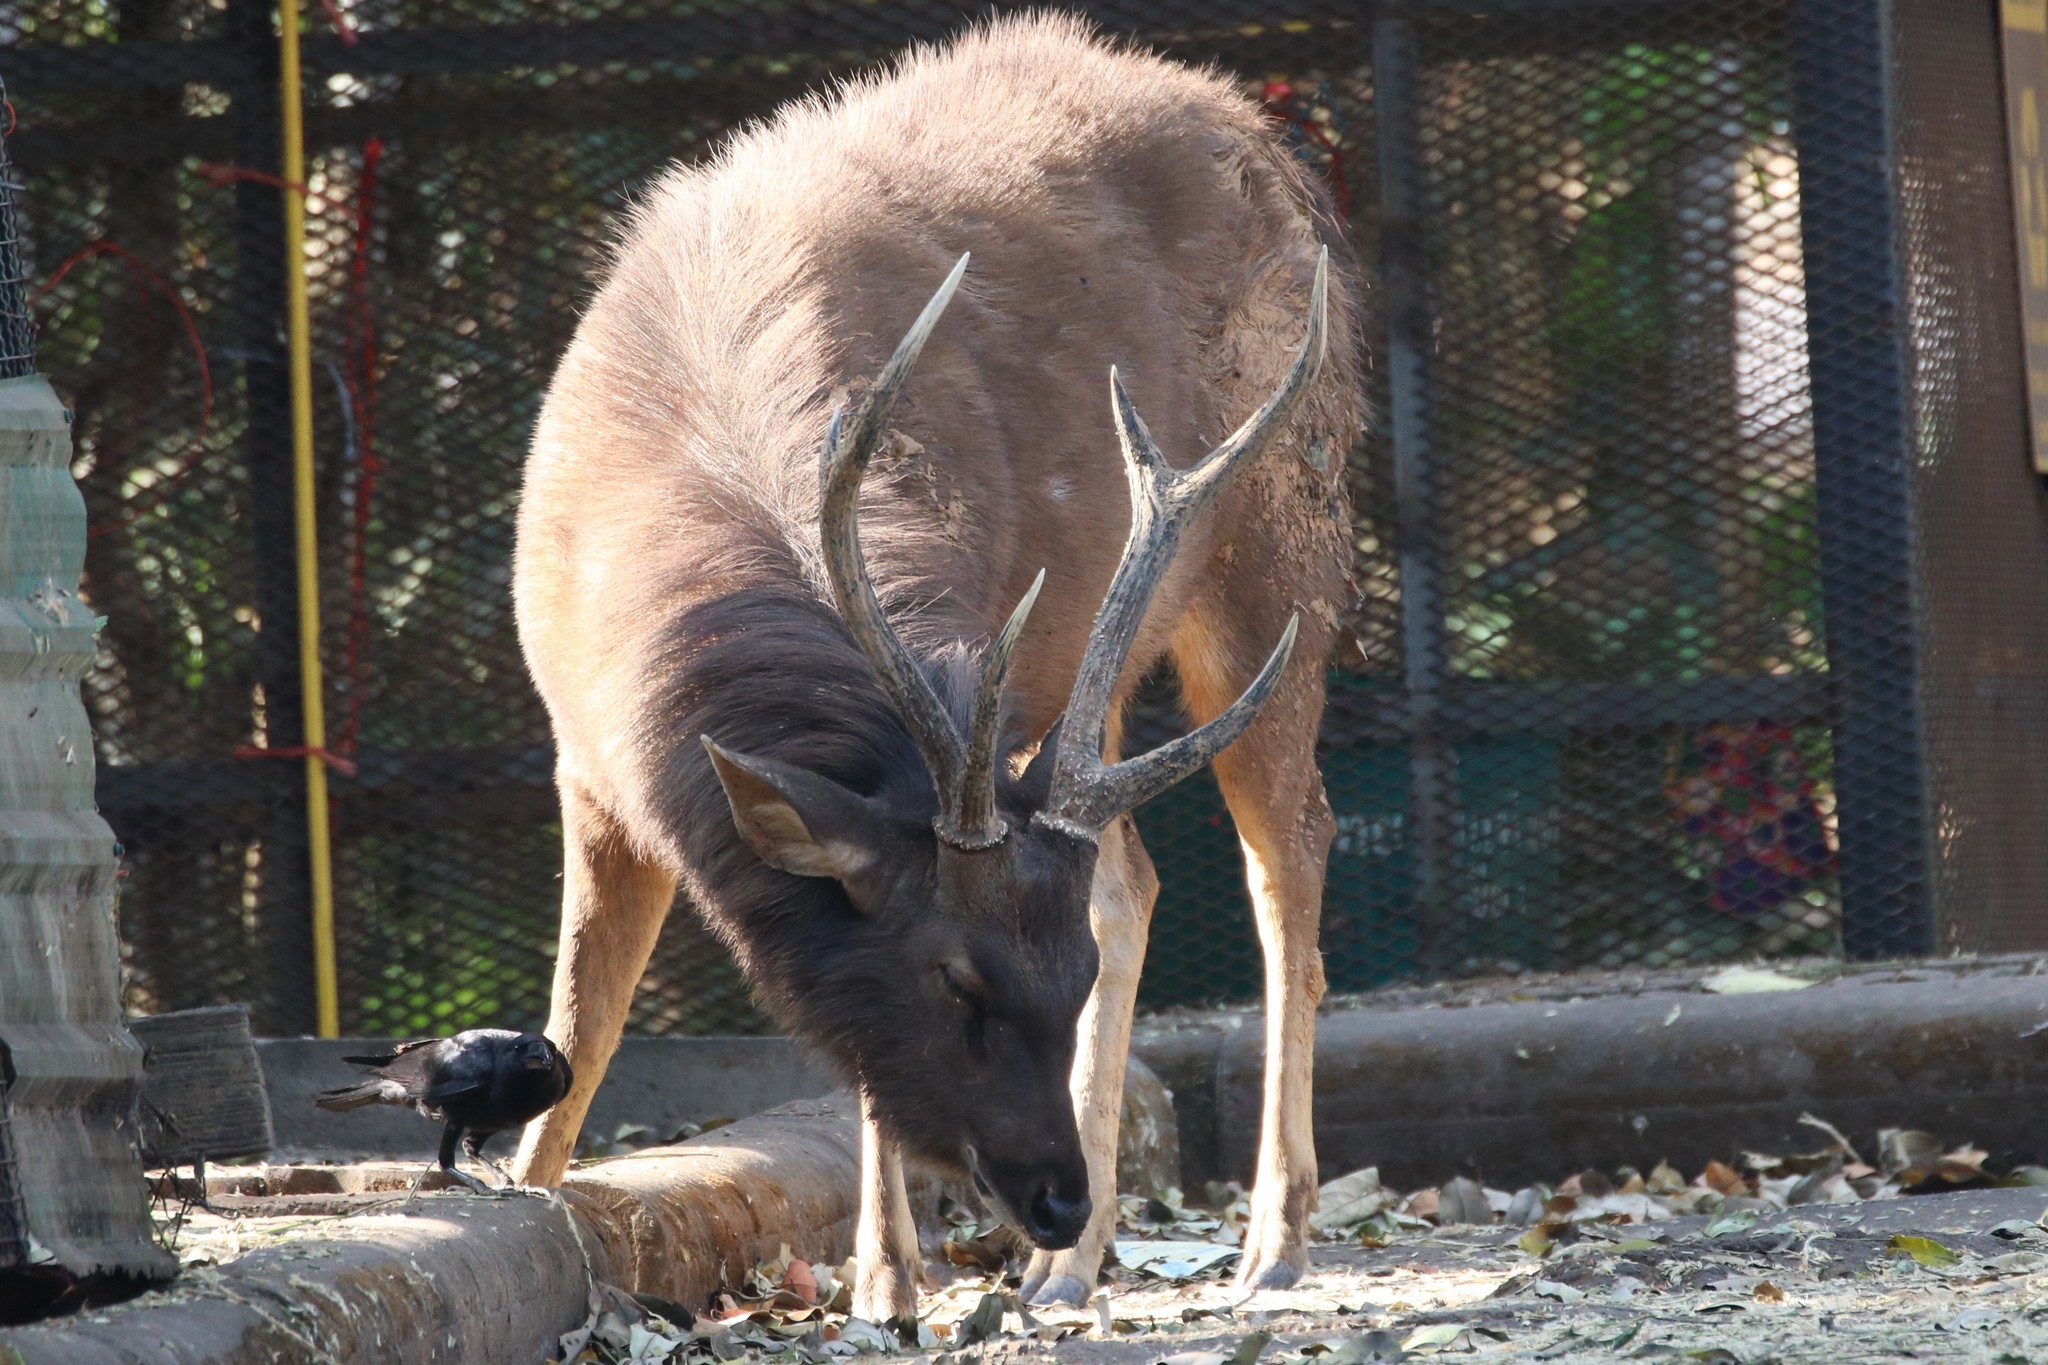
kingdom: Animalia
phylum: Chordata
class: Mammalia
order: Artiodactyla
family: Cervidae
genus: Rusa
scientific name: Rusa unicolor
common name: Sambar
